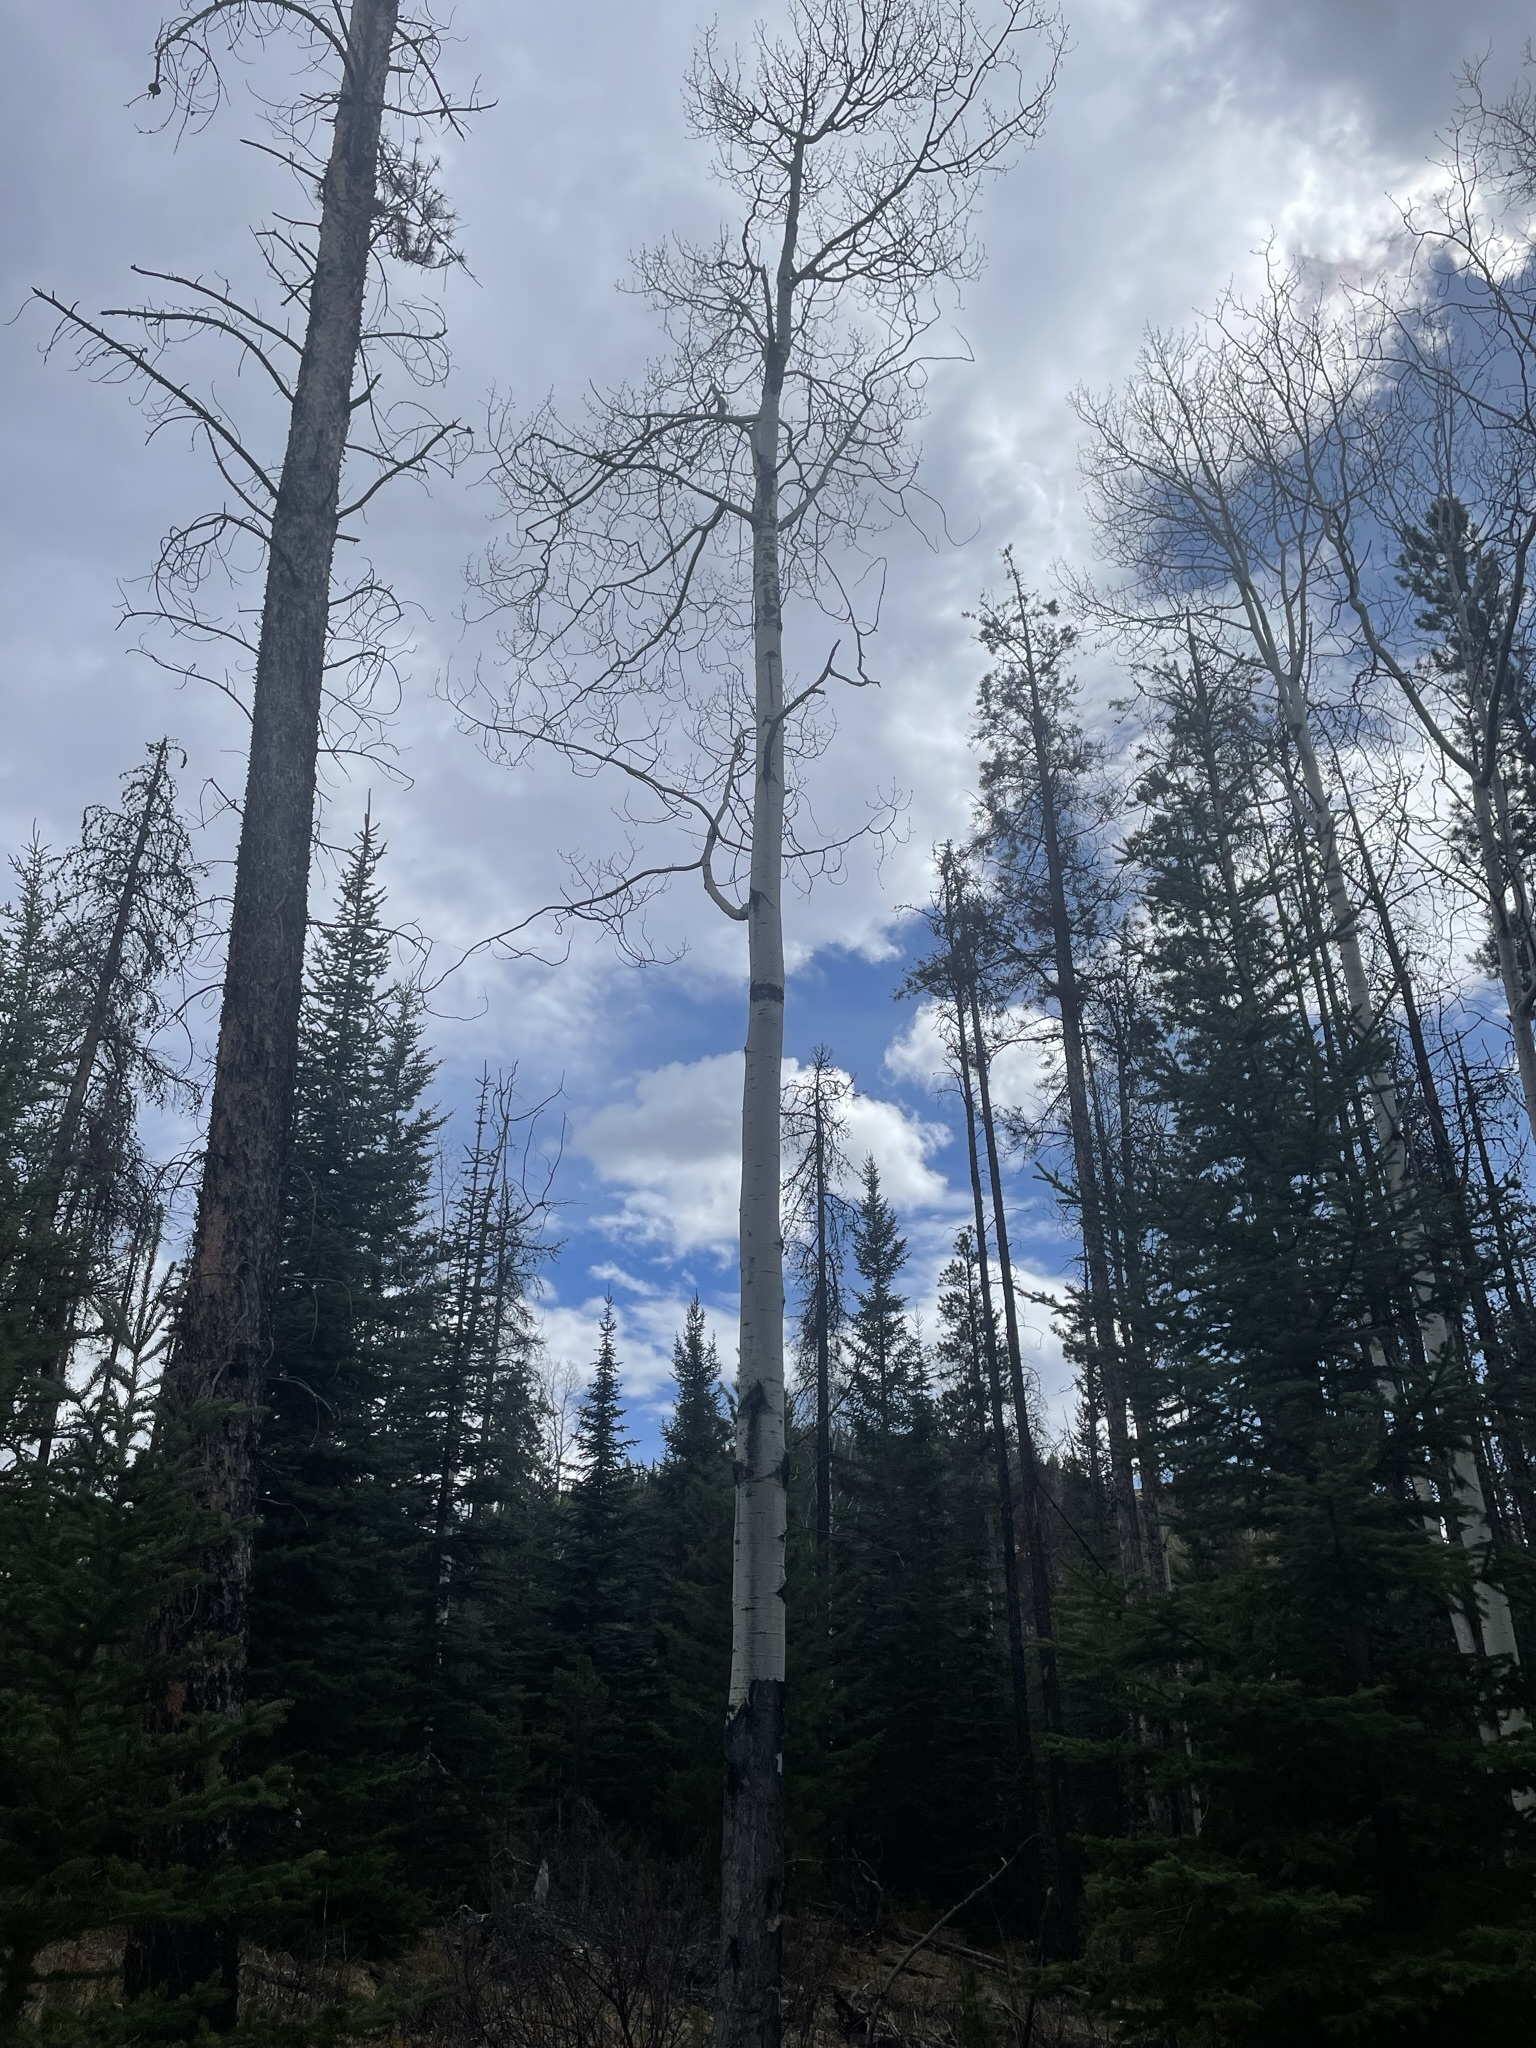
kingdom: Plantae
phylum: Tracheophyta
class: Magnoliopsida
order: Malpighiales
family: Salicaceae
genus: Populus
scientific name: Populus tremuloides
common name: Quaking aspen
